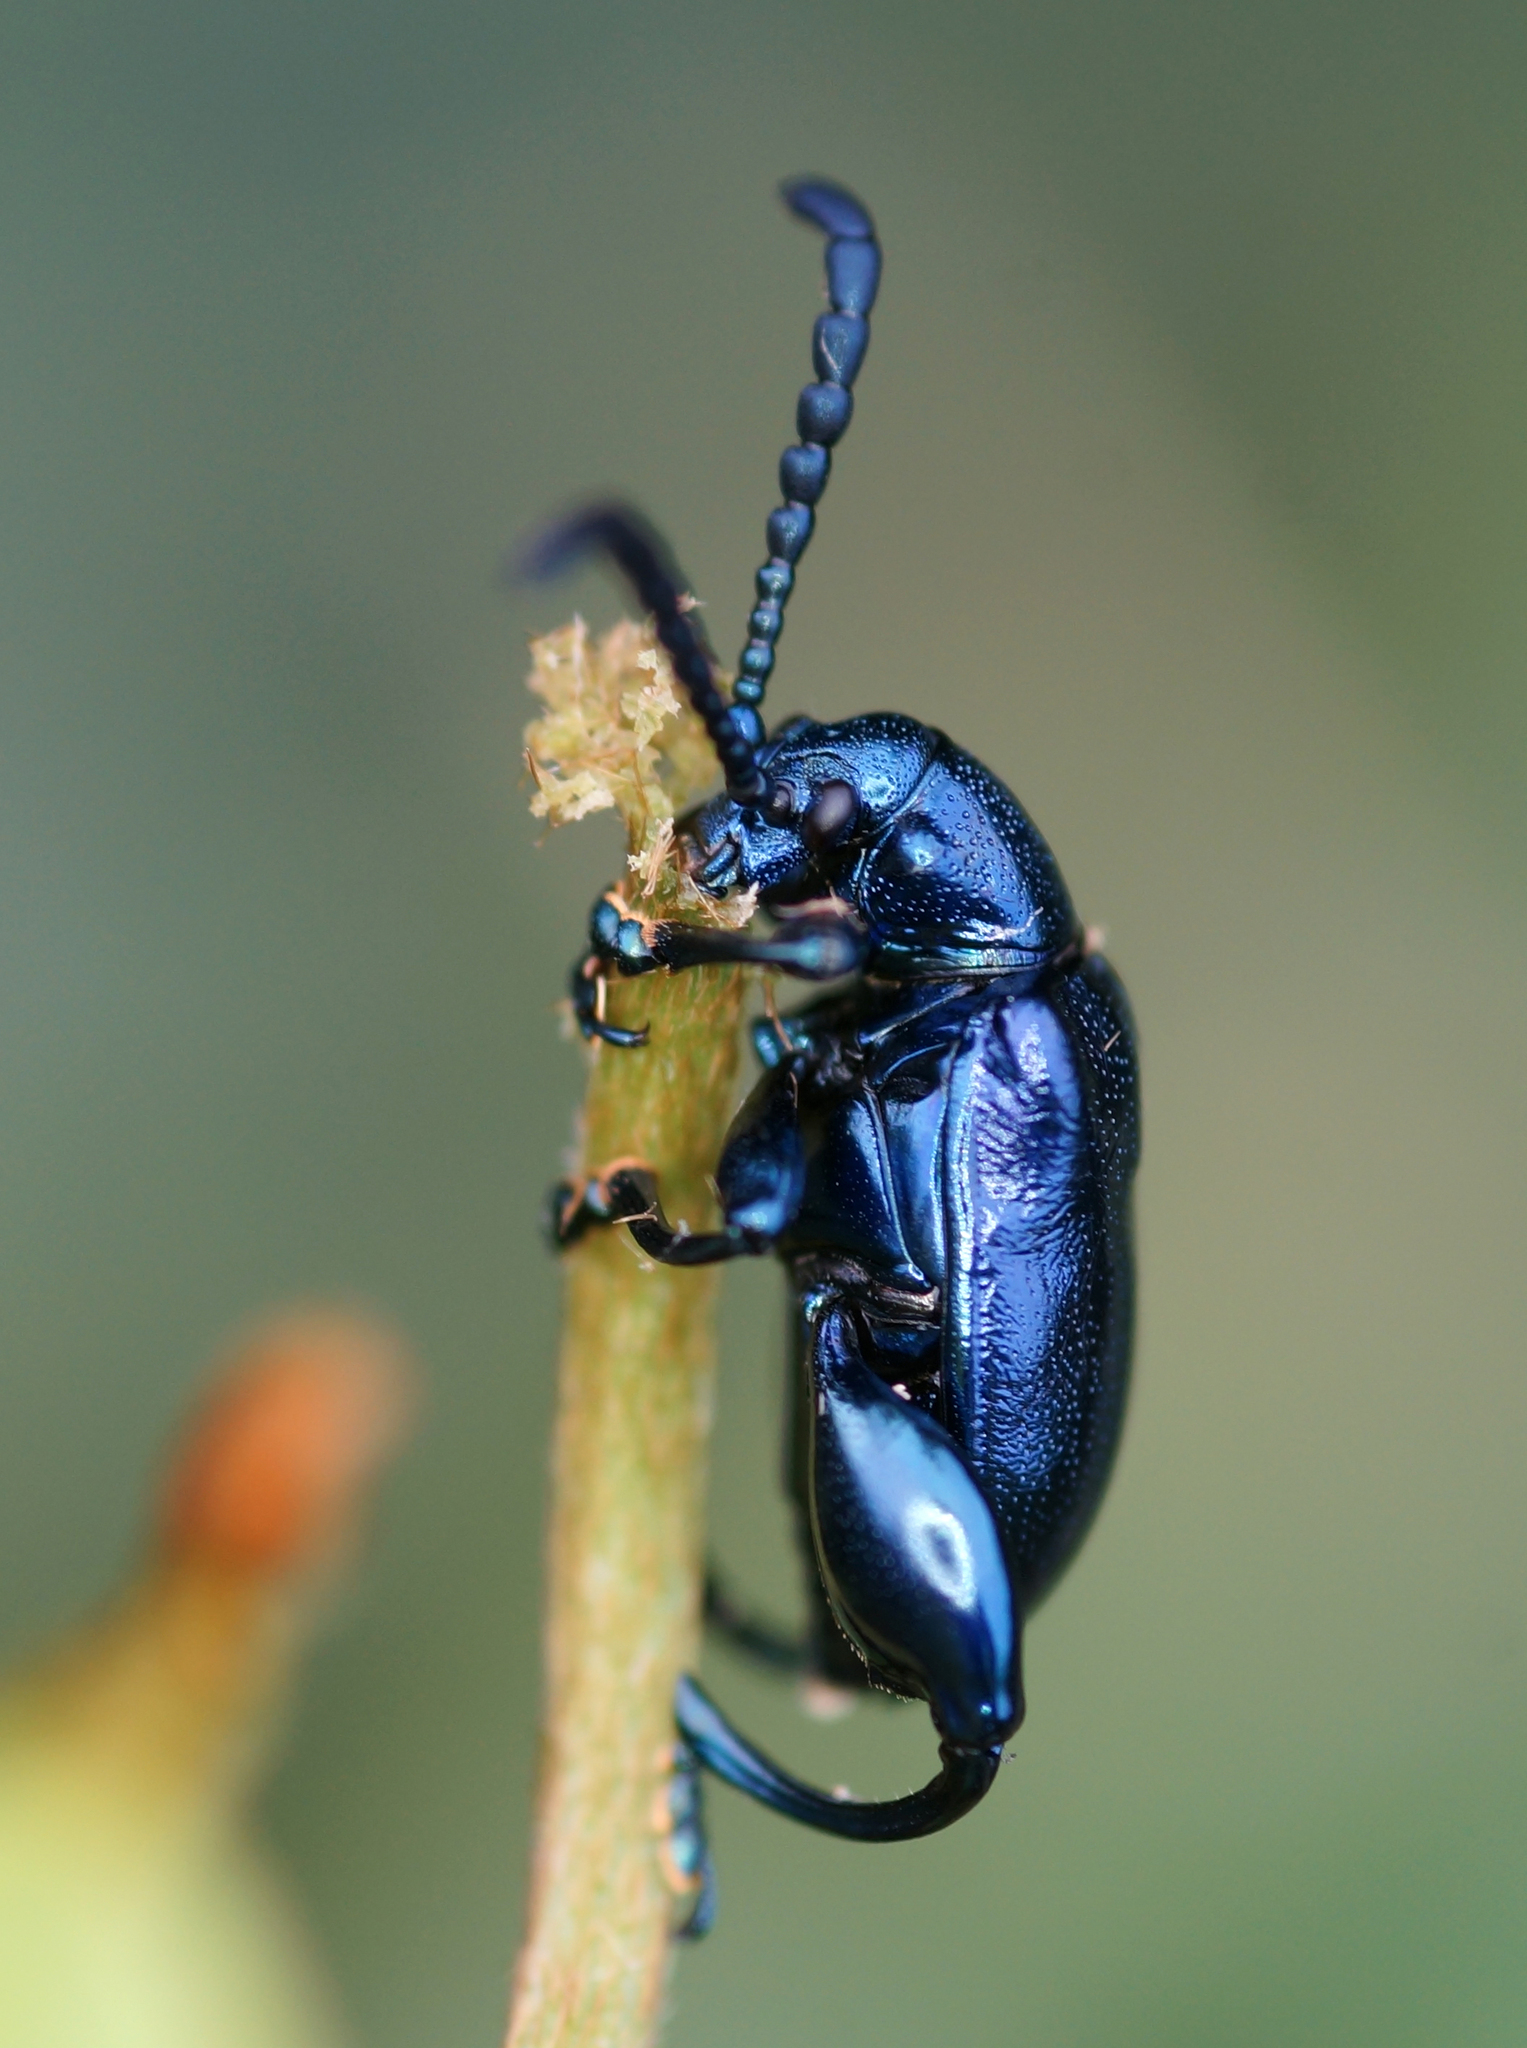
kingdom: Animalia
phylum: Arthropoda
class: Insecta
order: Coleoptera
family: Chrysomelidae
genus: Sagra
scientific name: Sagra odontopus
